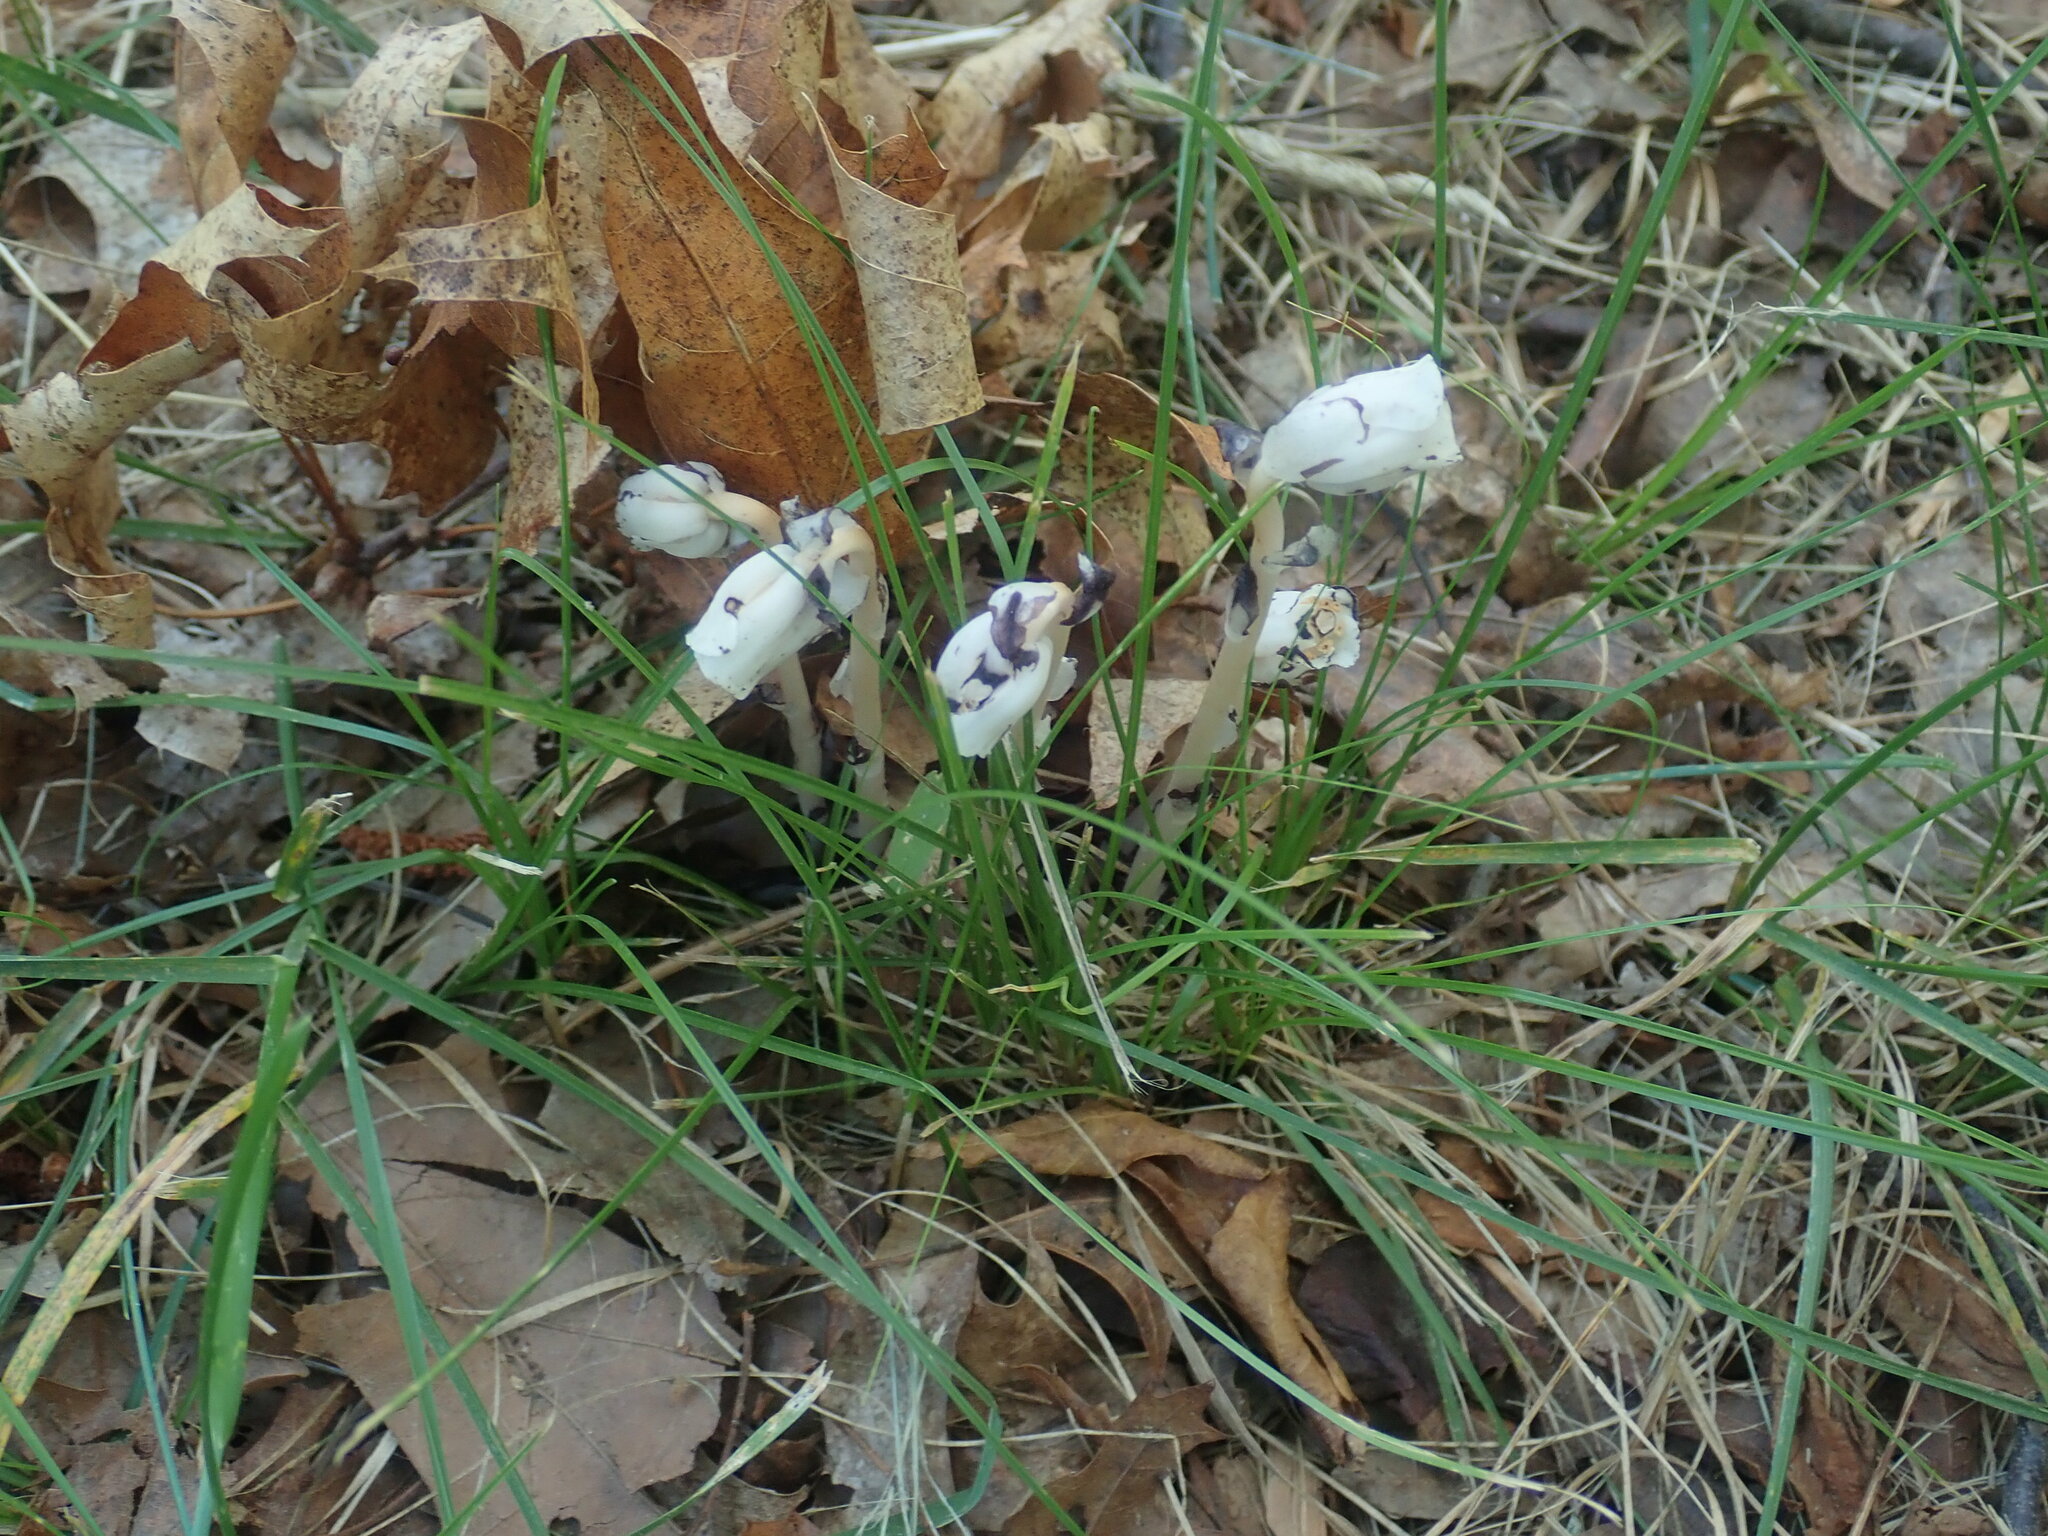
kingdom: Plantae
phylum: Tracheophyta
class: Magnoliopsida
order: Ericales
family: Ericaceae
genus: Monotropa
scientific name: Monotropa uniflora
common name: Convulsion root
